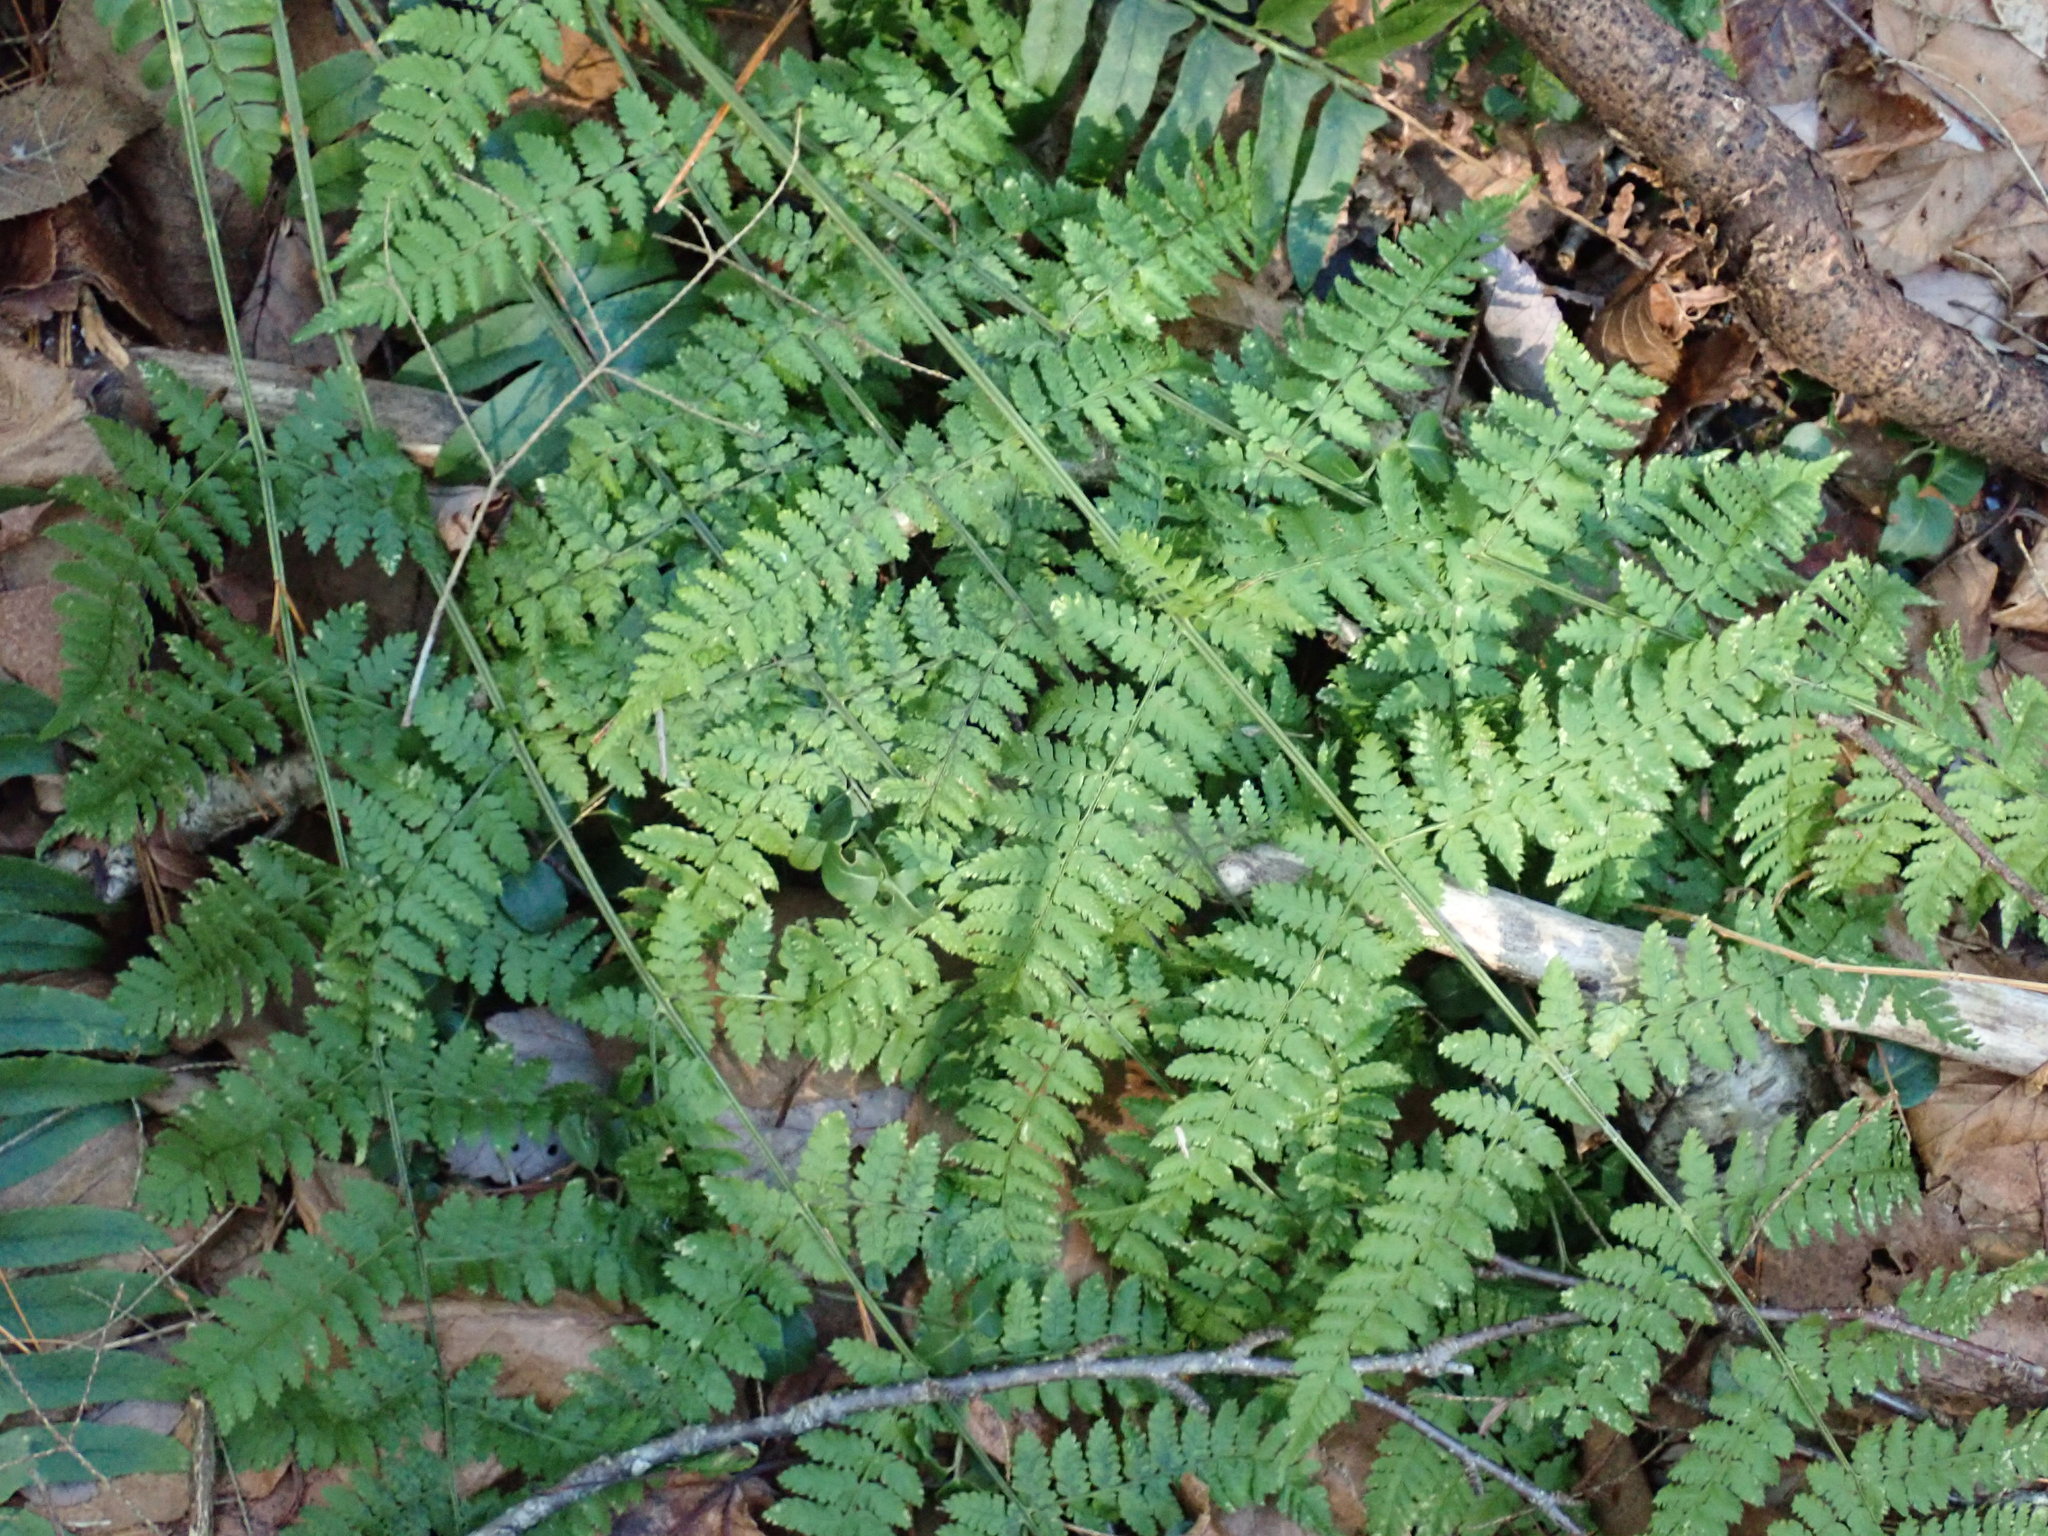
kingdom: Plantae
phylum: Tracheophyta
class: Polypodiopsida
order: Polypodiales
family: Dryopteridaceae
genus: Dryopteris
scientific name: Dryopteris intermedia
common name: Evergreen wood fern
